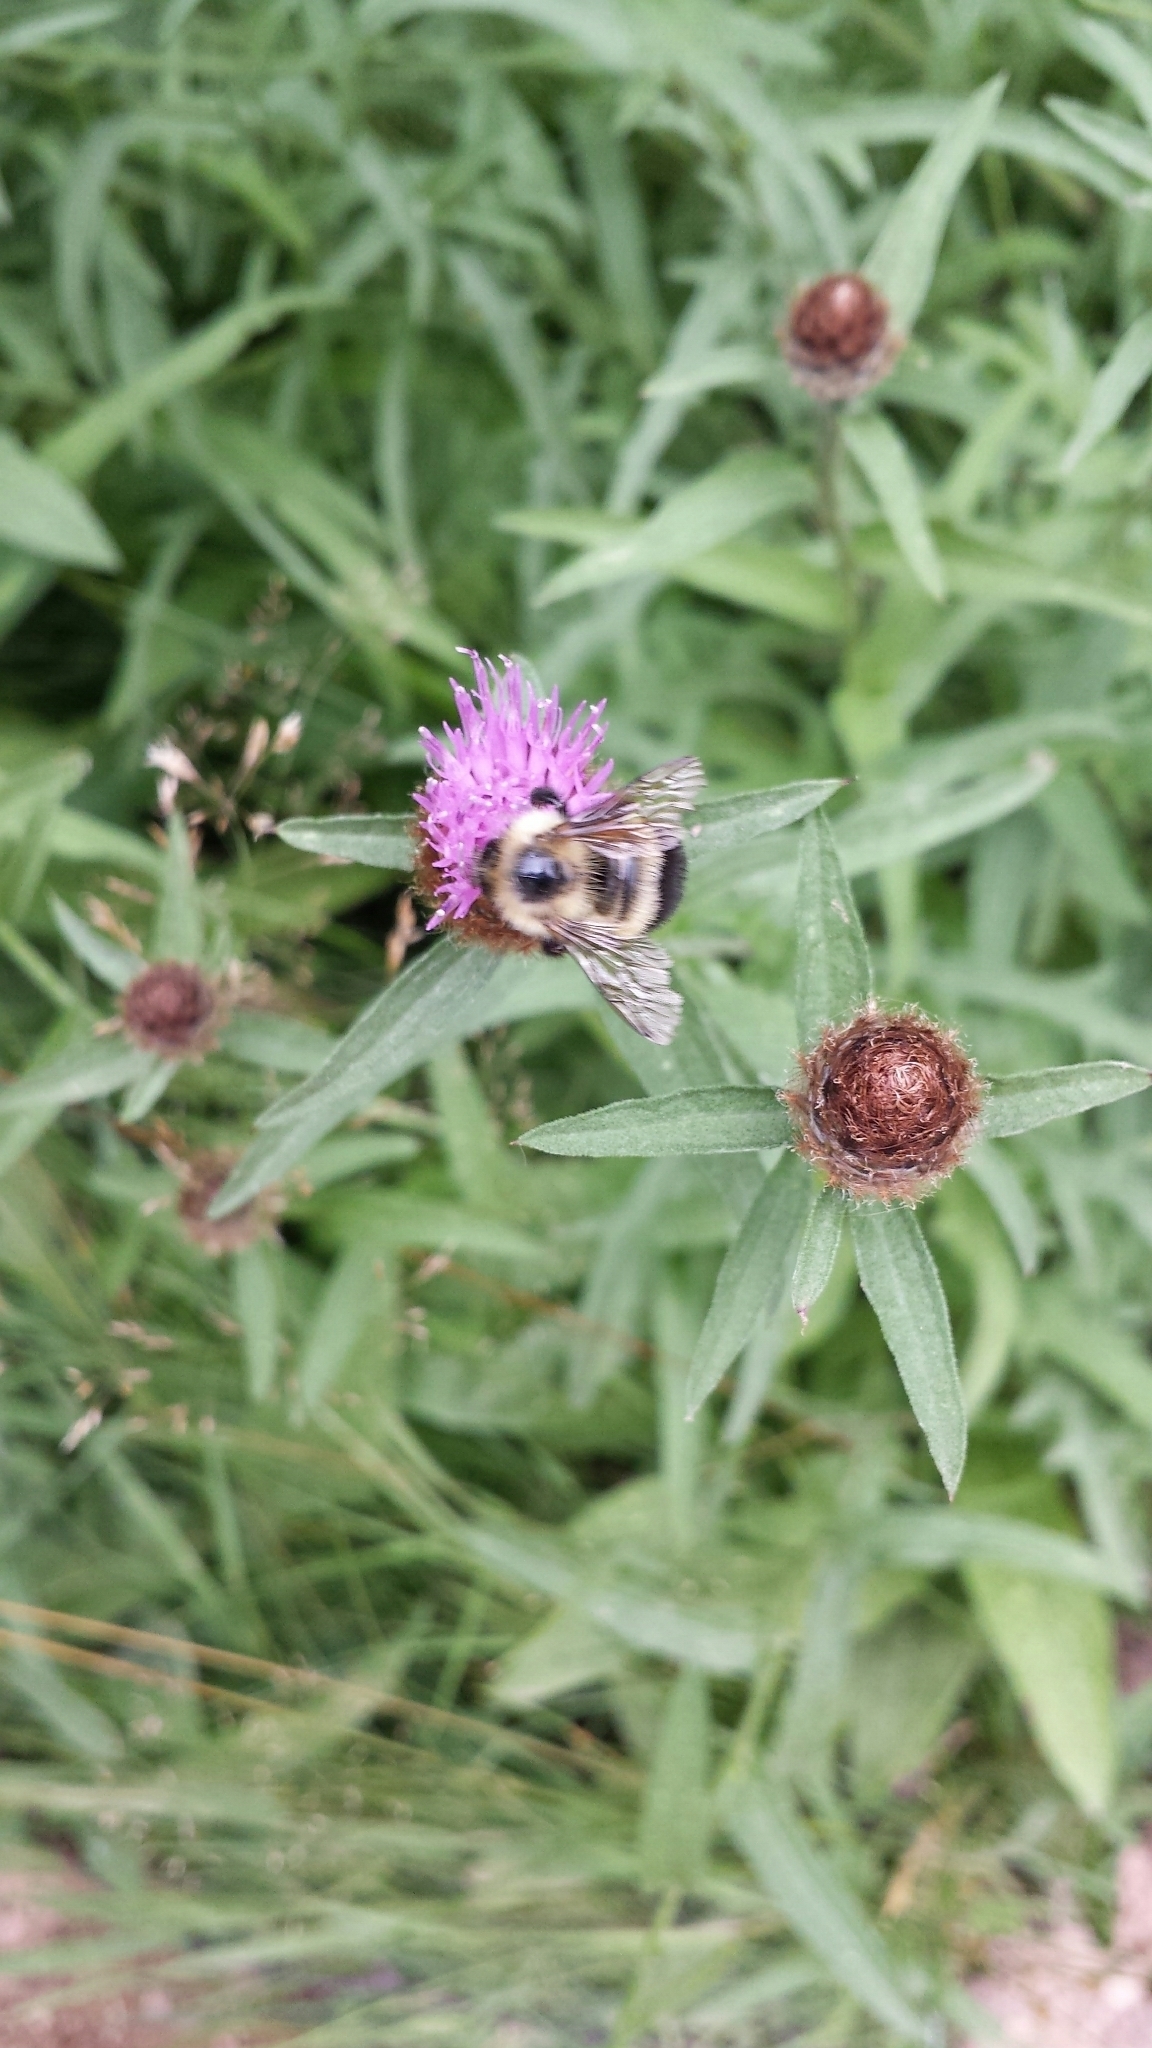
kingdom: Animalia
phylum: Arthropoda
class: Insecta
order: Hymenoptera
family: Apidae
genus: Pyrobombus
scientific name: Pyrobombus
